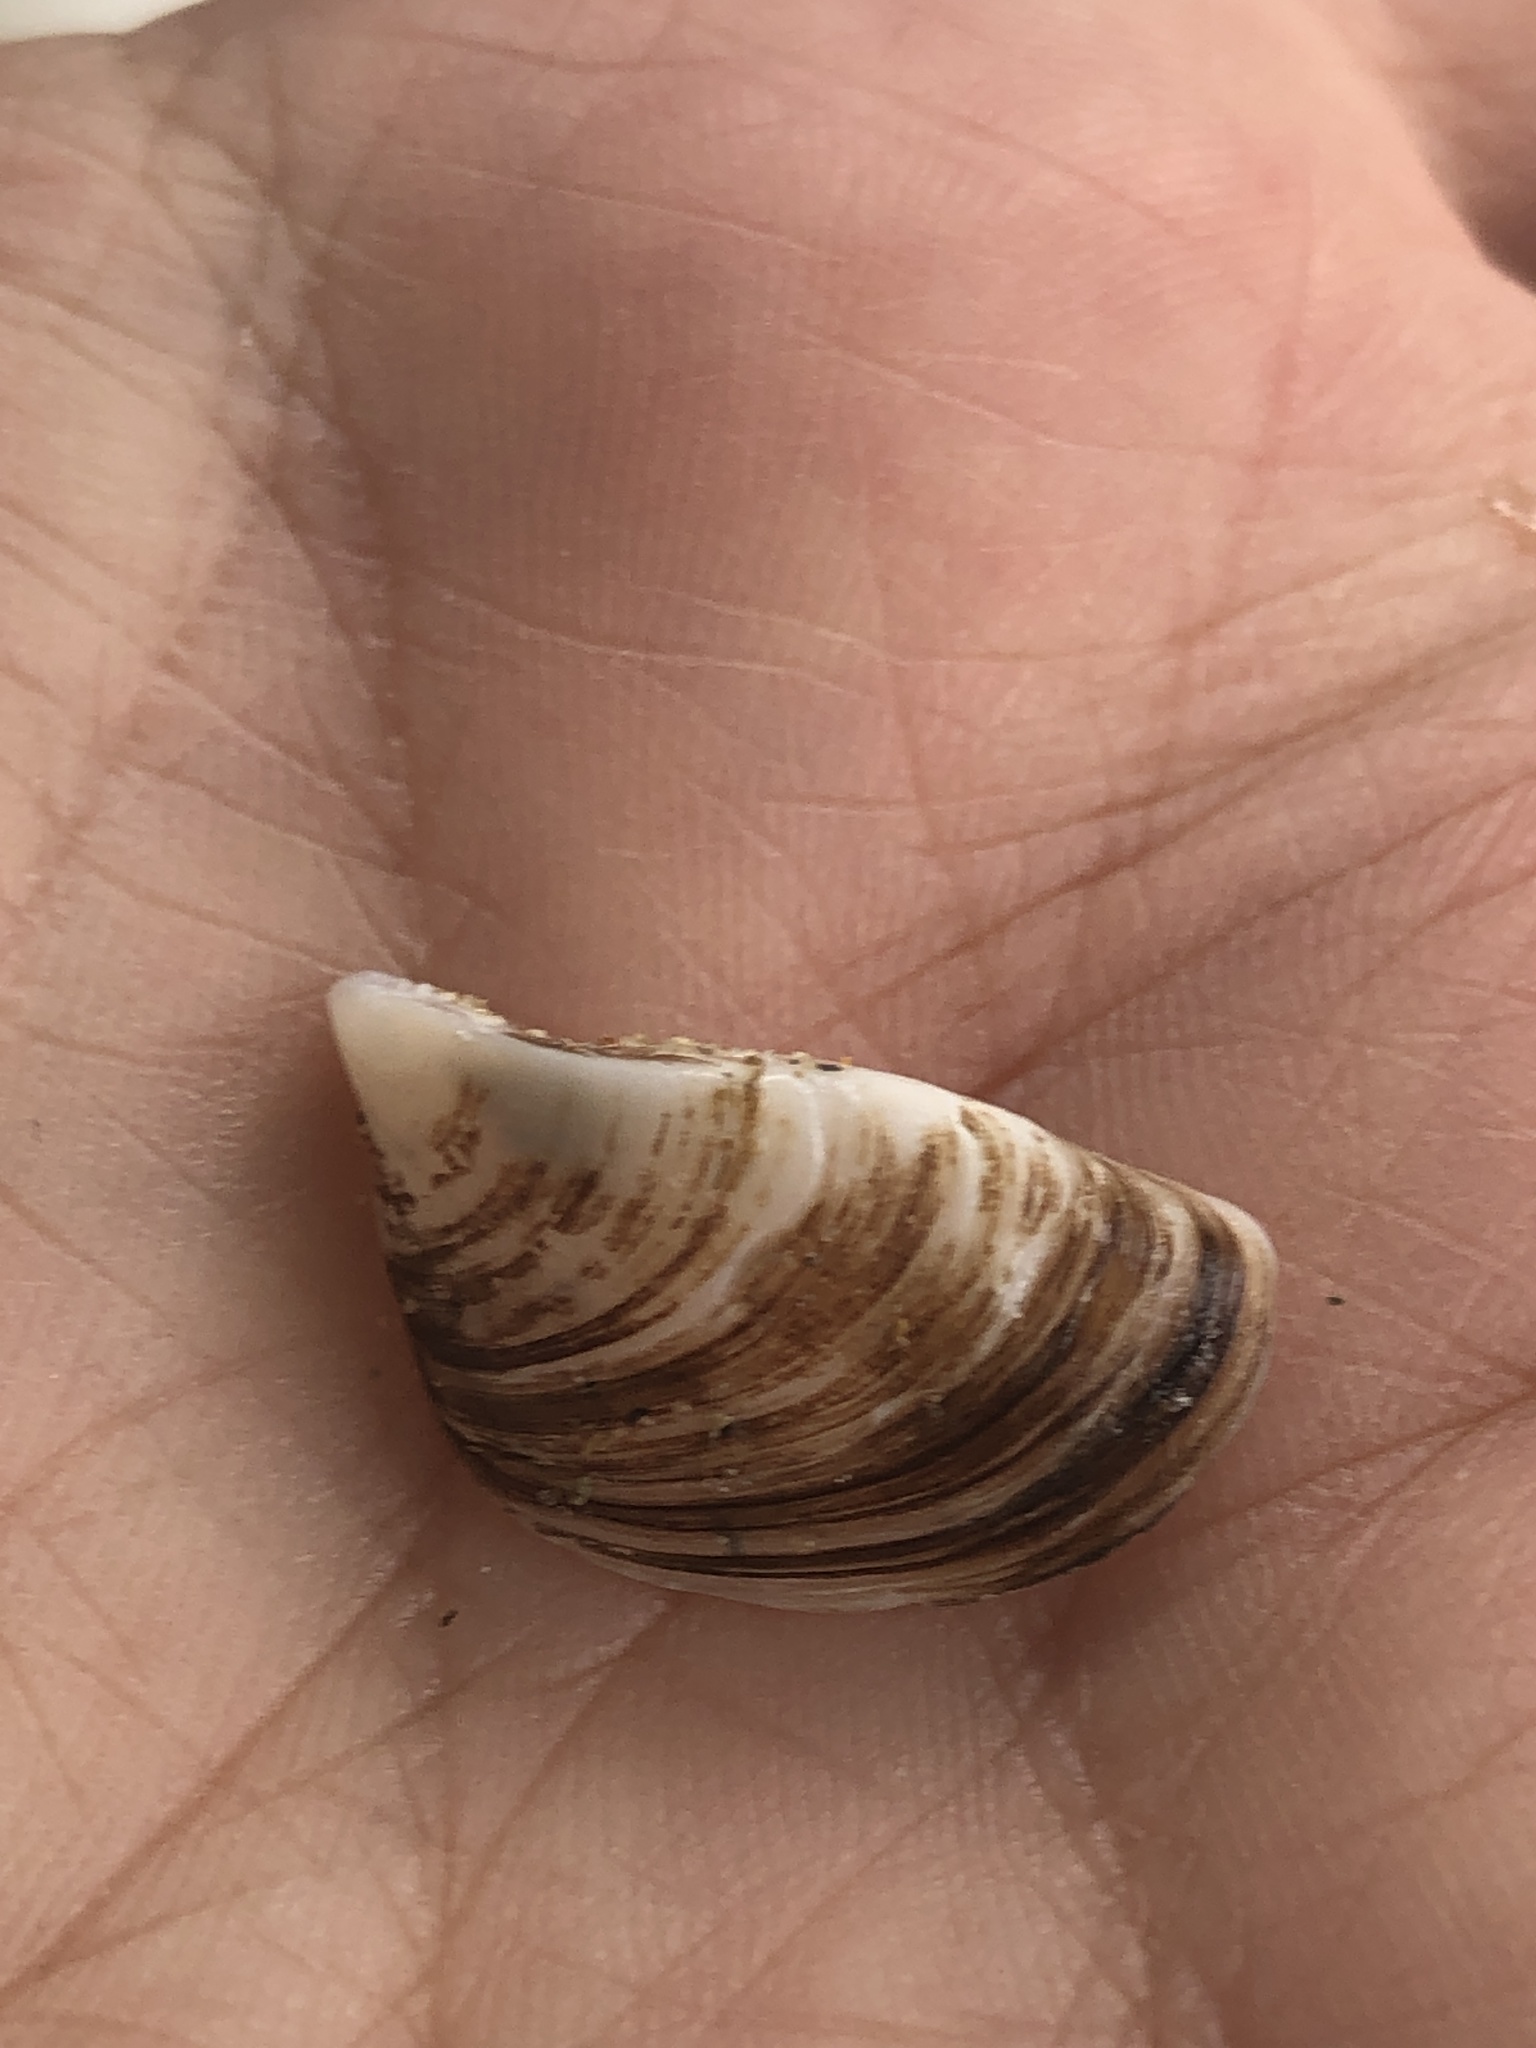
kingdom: Animalia
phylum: Mollusca
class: Bivalvia
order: Myida
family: Dreissenidae
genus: Dreissena
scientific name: Dreissena polymorpha
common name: Zebra mussel
